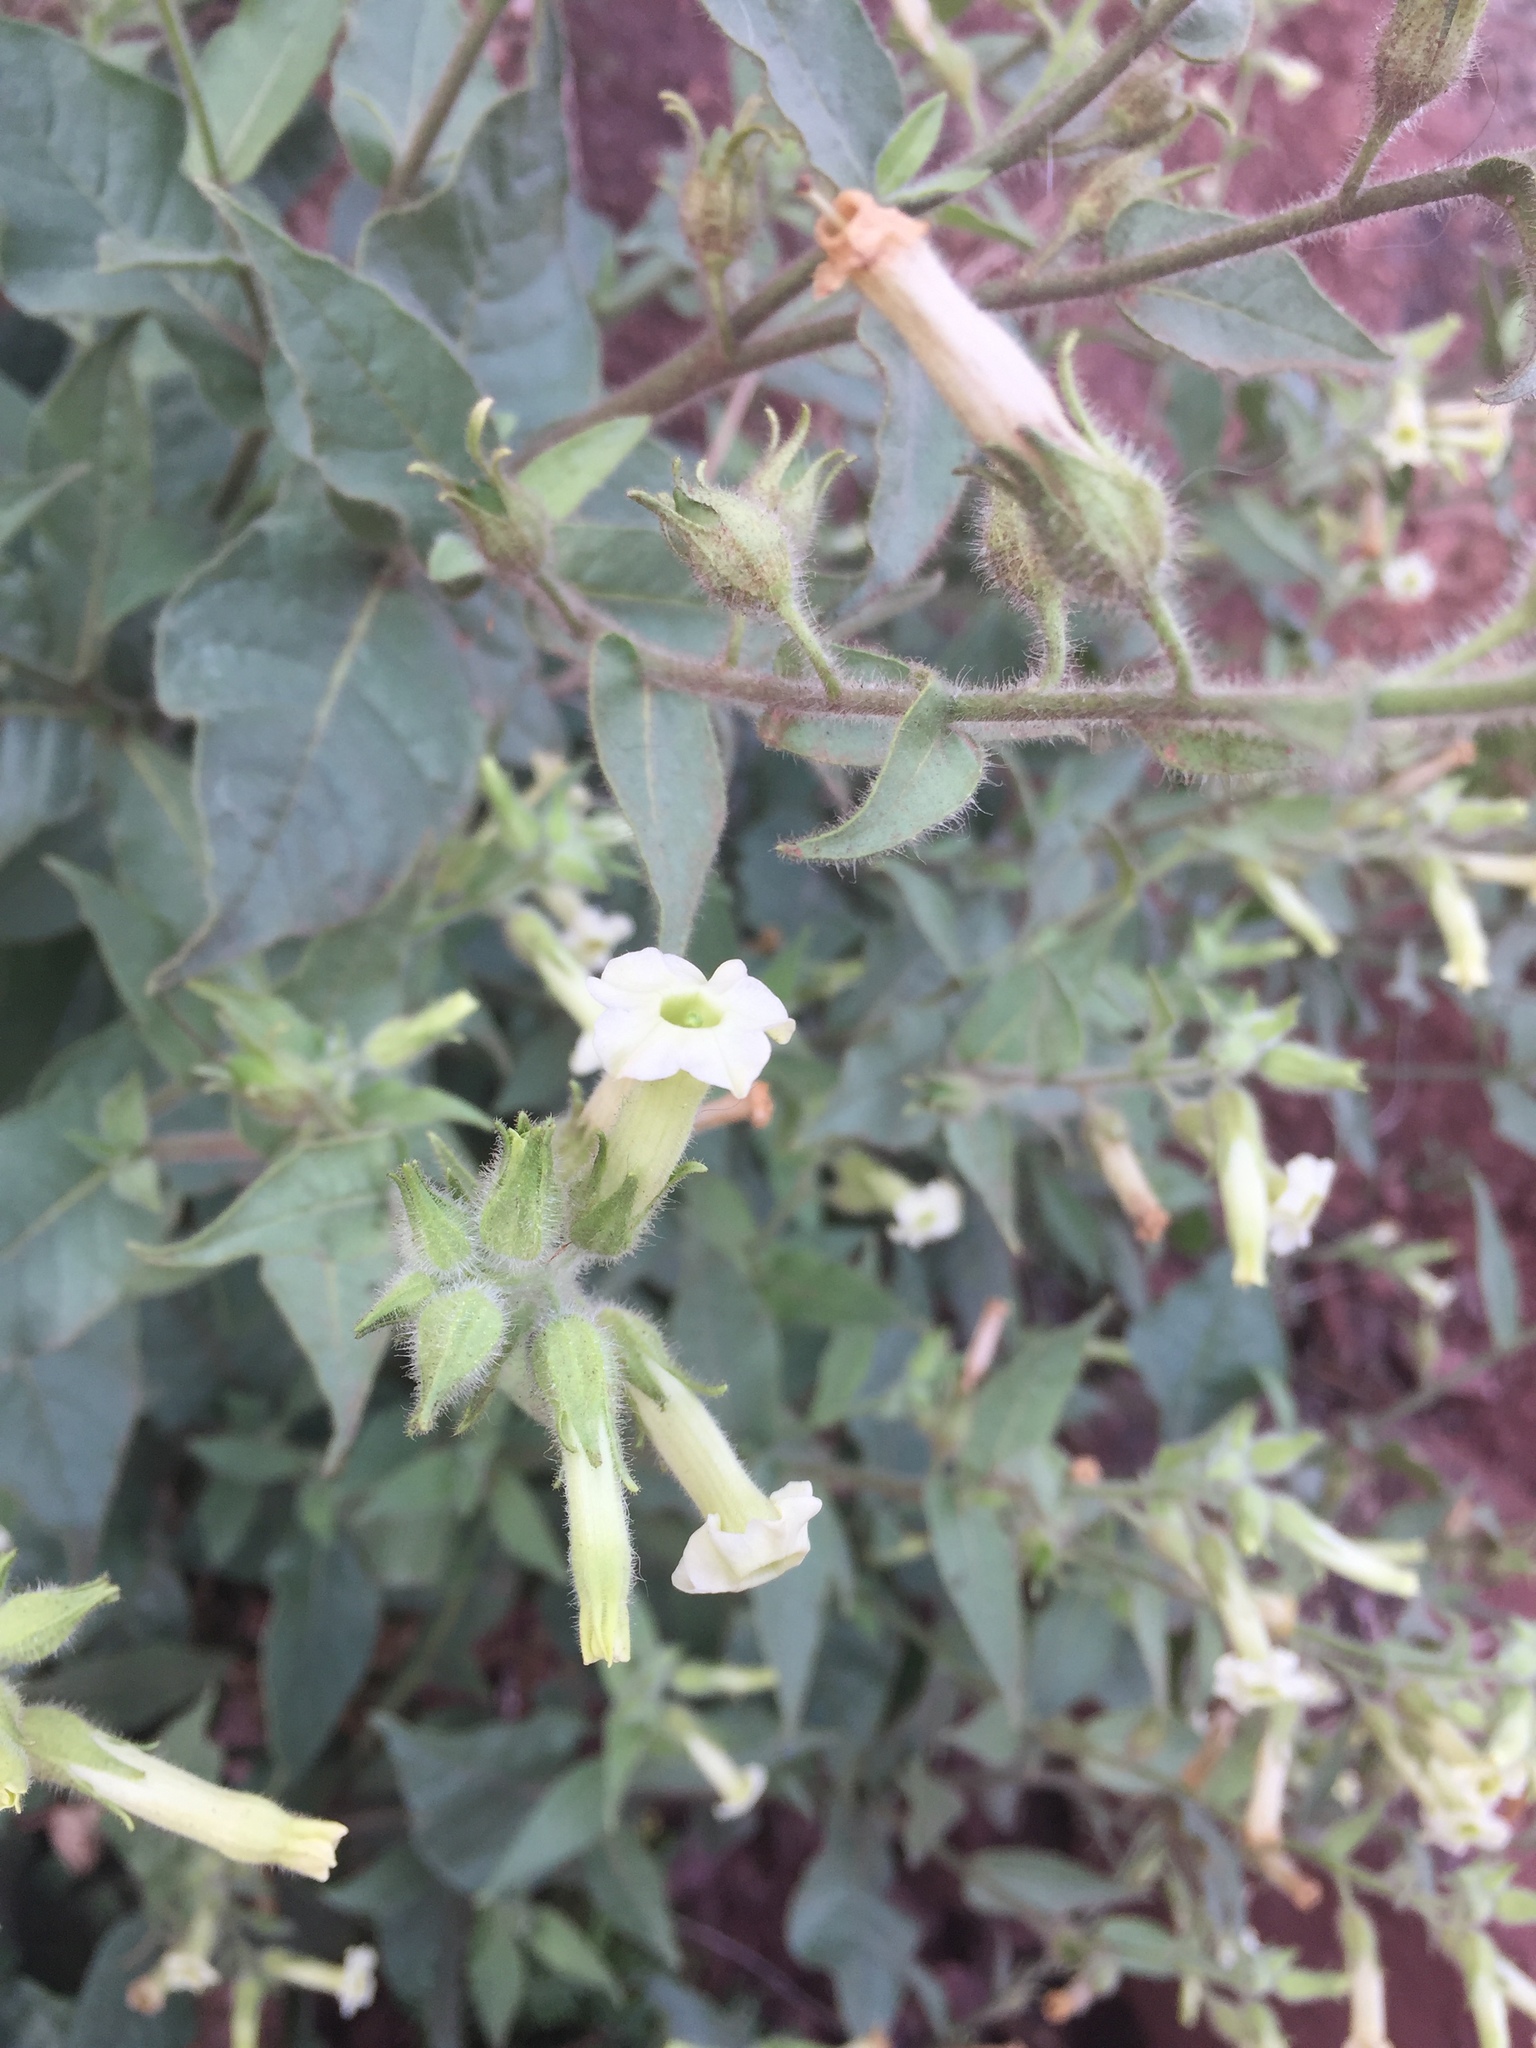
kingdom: Plantae
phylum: Tracheophyta
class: Magnoliopsida
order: Solanales
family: Solanaceae
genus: Nicotiana
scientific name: Nicotiana obtusifolia
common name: Desert tobacco
